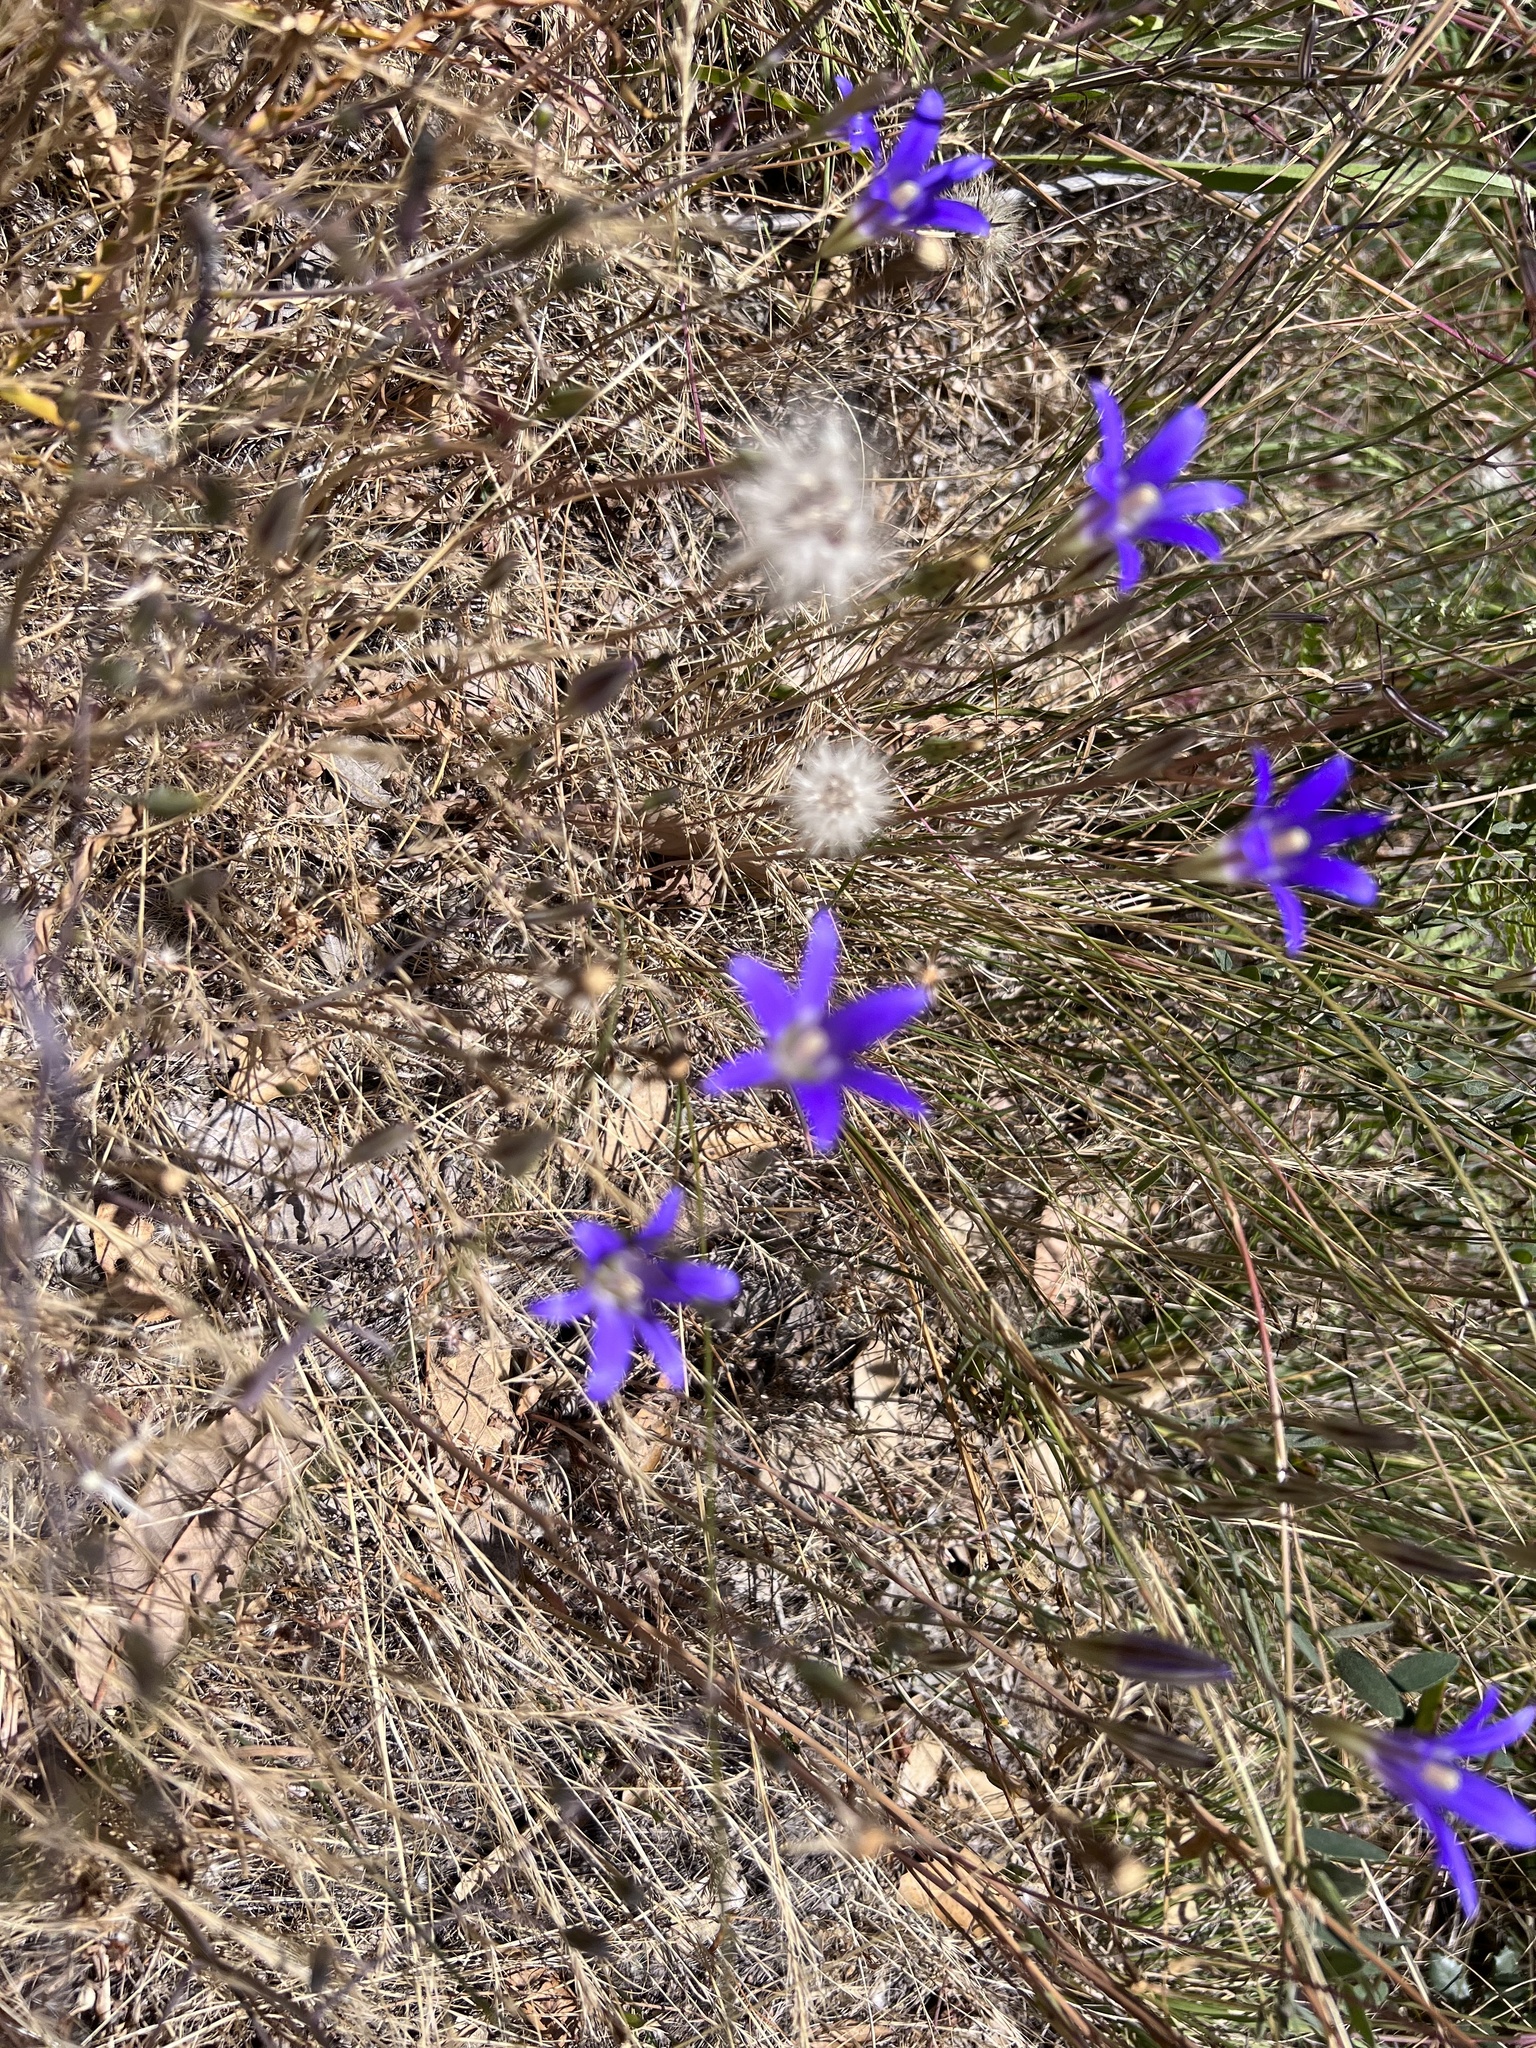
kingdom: Plantae
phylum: Tracheophyta
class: Liliopsida
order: Asparagales
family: Asparagaceae
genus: Brodiaea
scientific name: Brodiaea elegans
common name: Elegant cluster-lily
